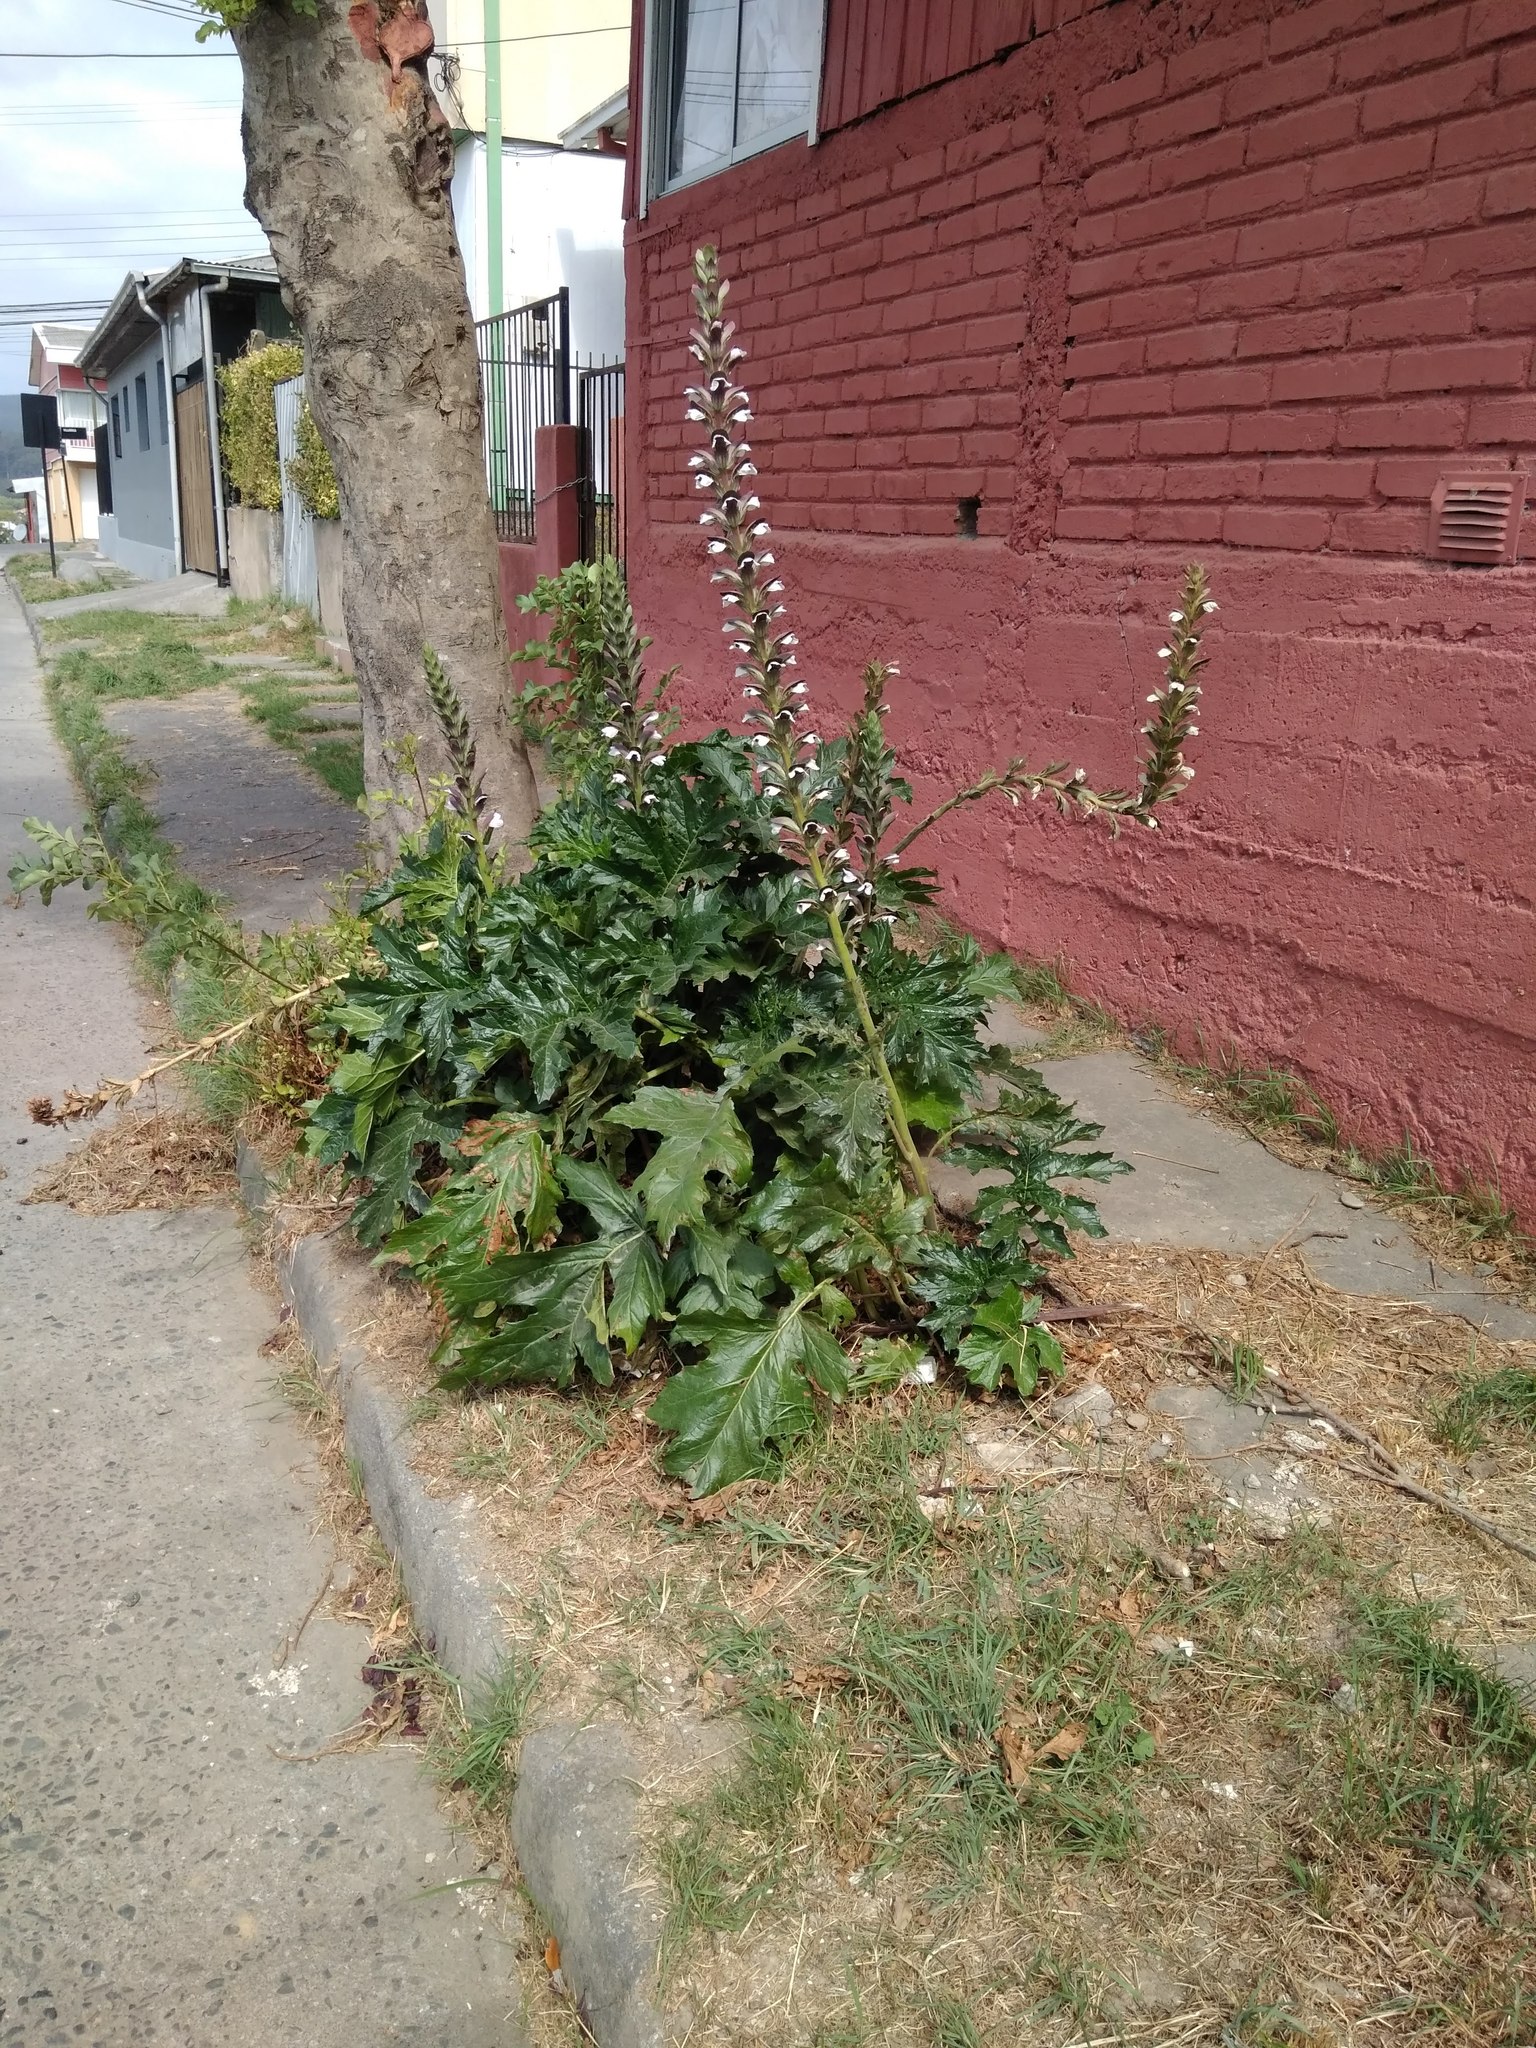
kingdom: Plantae
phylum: Tracheophyta
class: Magnoliopsida
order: Lamiales
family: Acanthaceae
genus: Acanthus
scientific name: Acanthus mollis
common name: Bear's-breech
